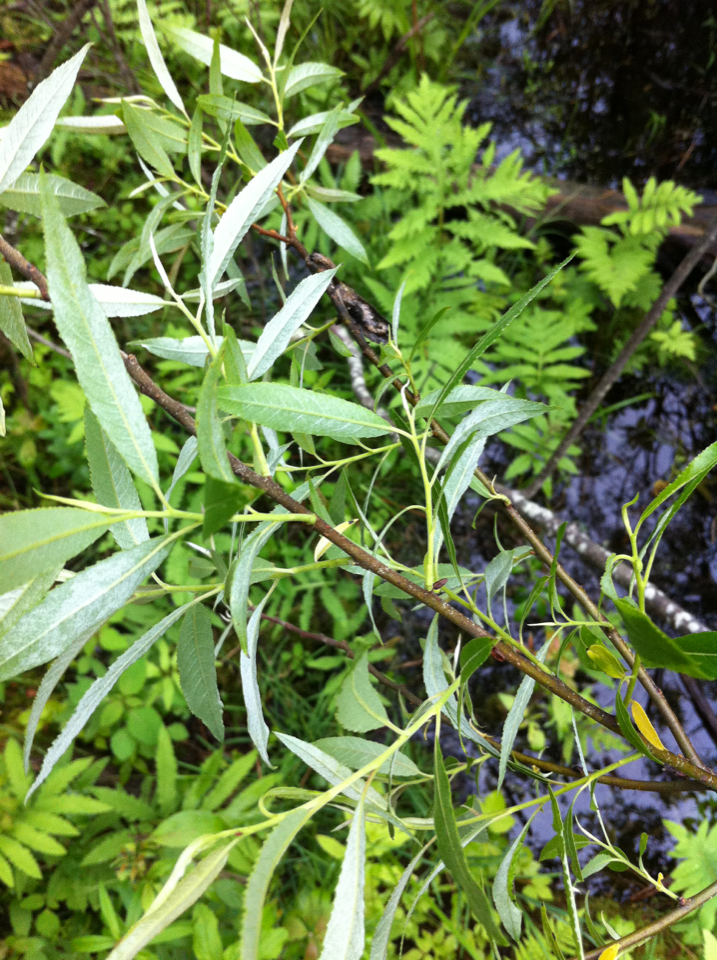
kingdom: Plantae
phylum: Tracheophyta
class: Magnoliopsida
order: Malpighiales
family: Salicaceae
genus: Salix
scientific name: Salix sericea
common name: Silky willow
